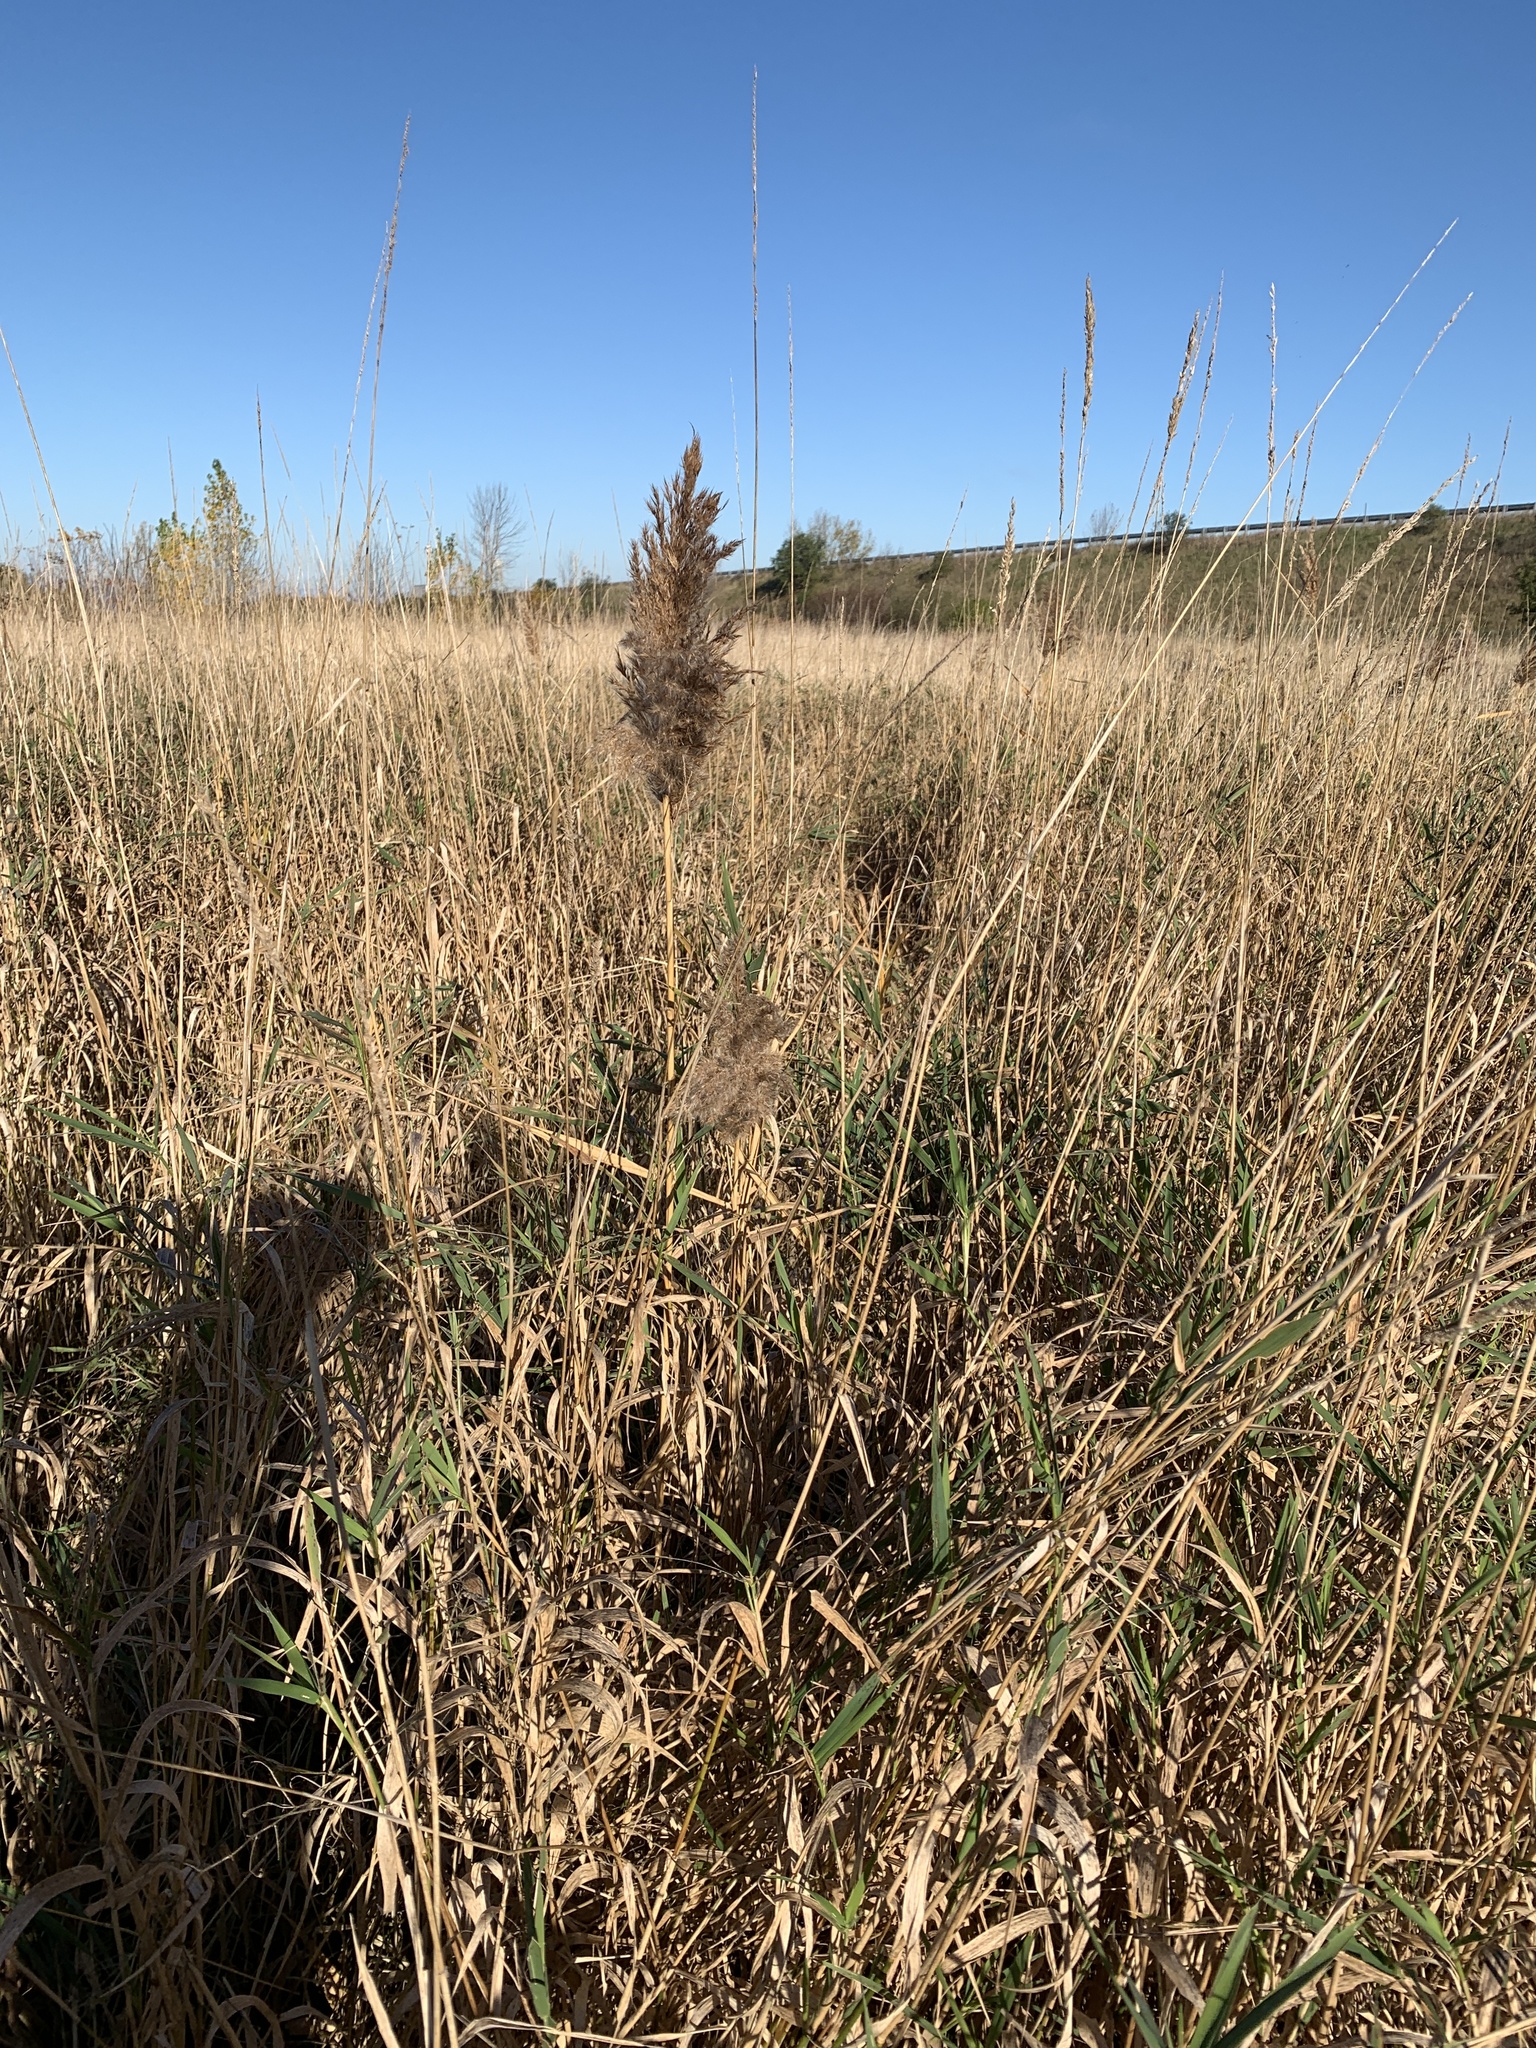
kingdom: Plantae
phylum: Tracheophyta
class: Liliopsida
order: Poales
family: Poaceae
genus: Phragmites
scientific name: Phragmites australis
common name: Common reed
